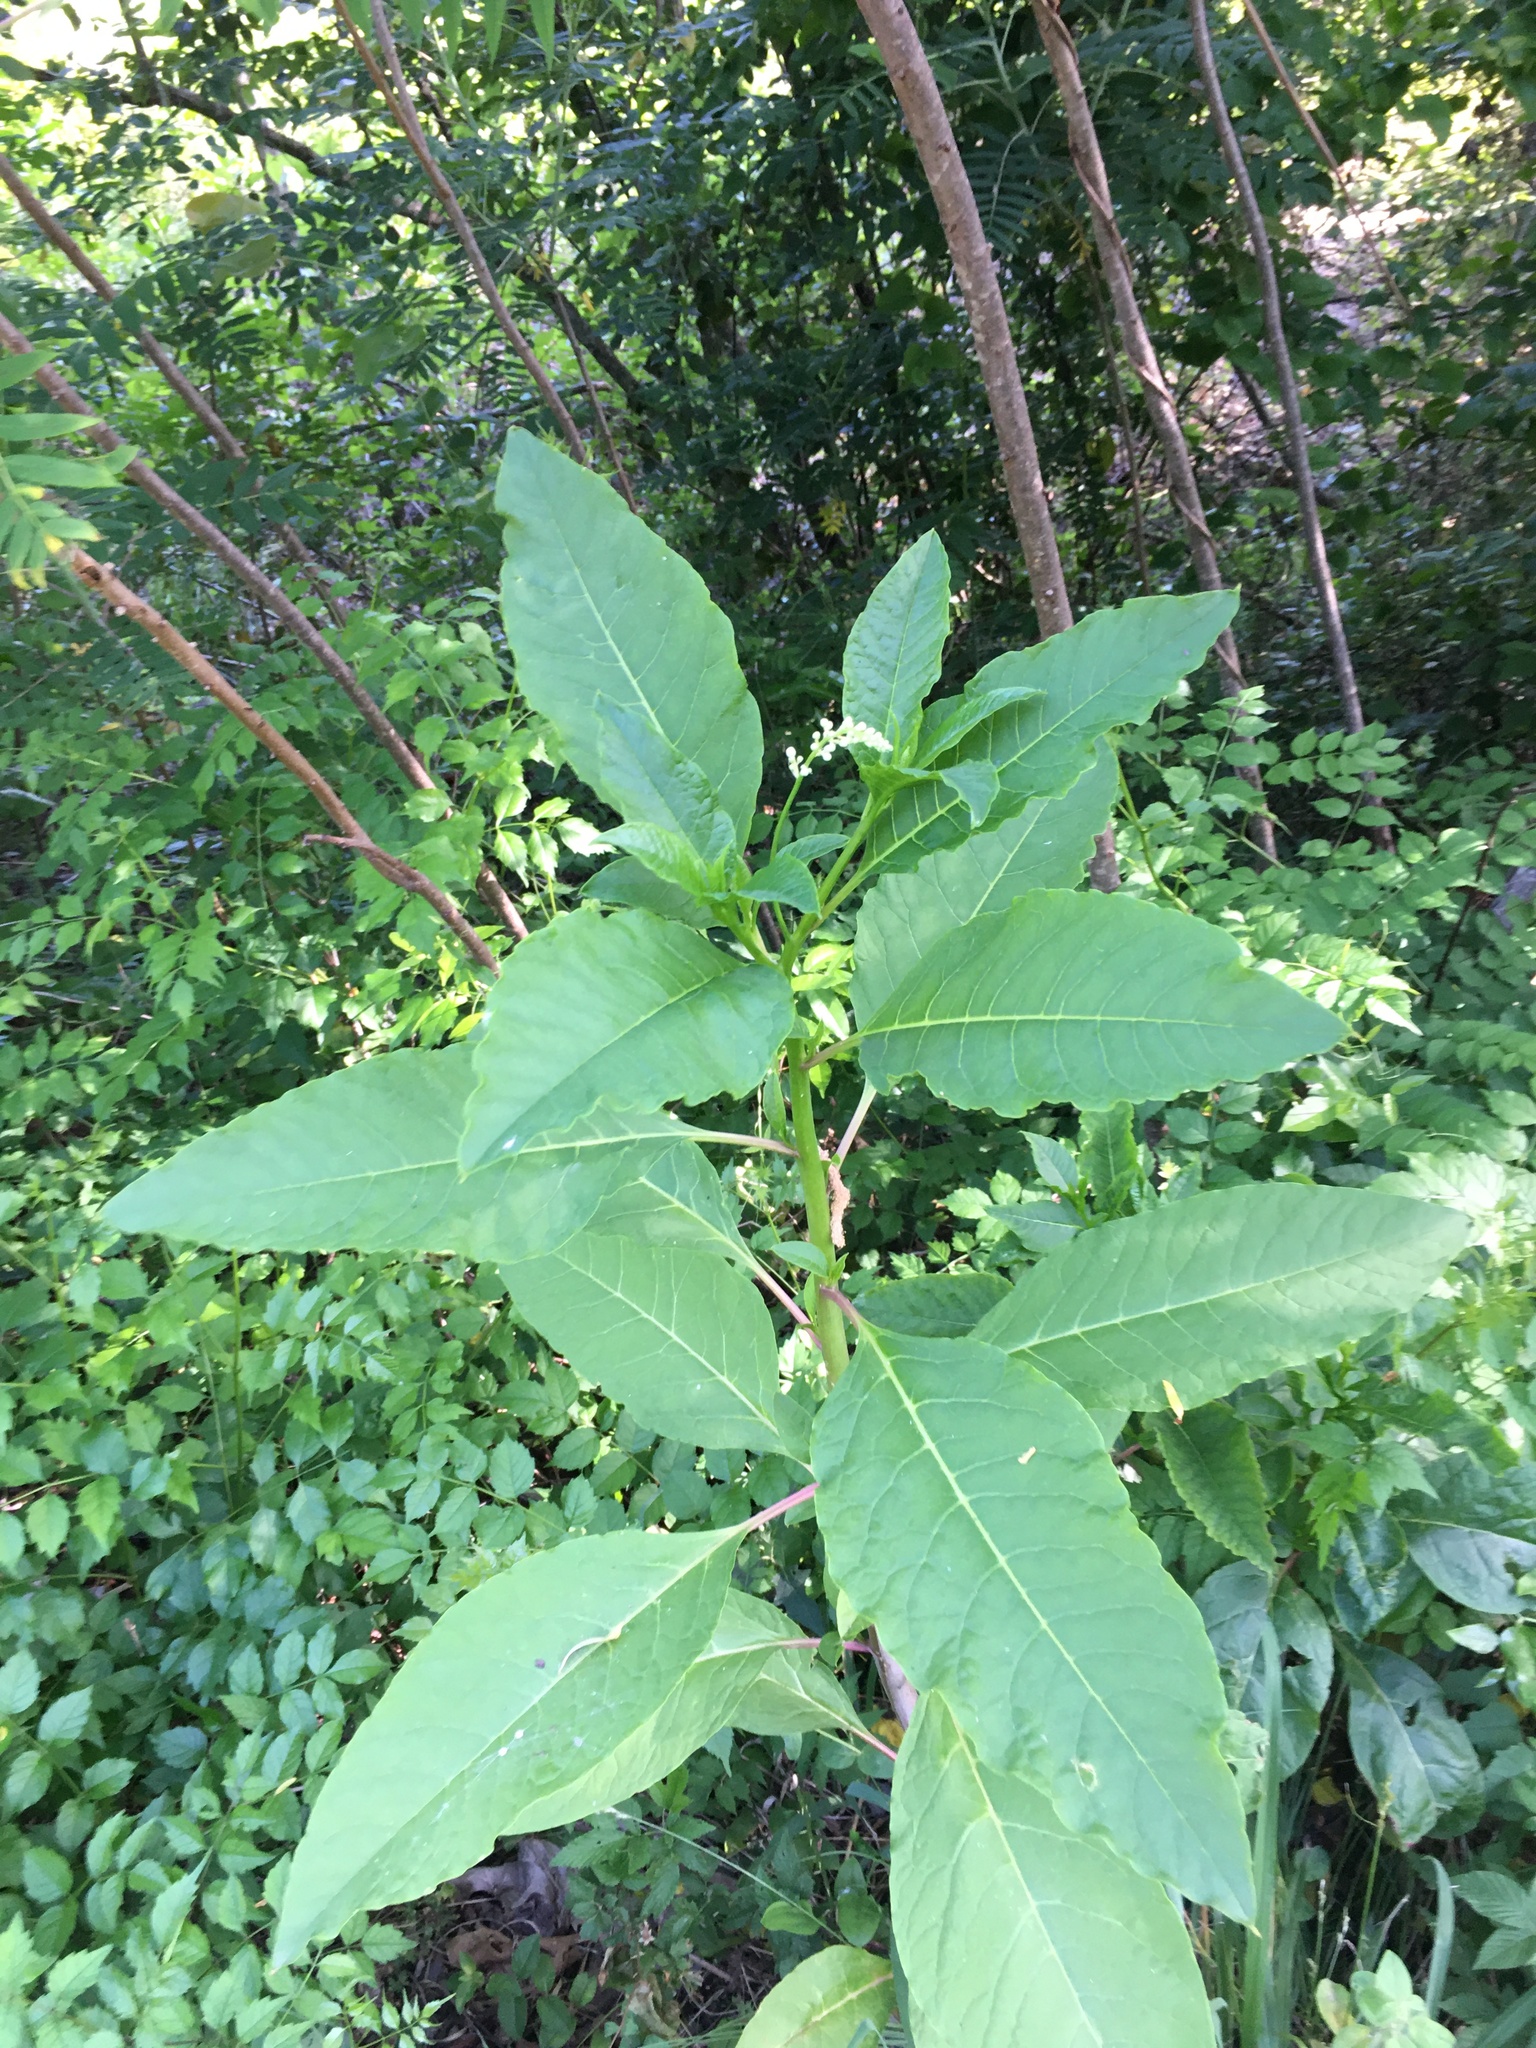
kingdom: Plantae
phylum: Tracheophyta
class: Magnoliopsida
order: Caryophyllales
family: Phytolaccaceae
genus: Phytolacca
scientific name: Phytolacca americana
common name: American pokeweed
